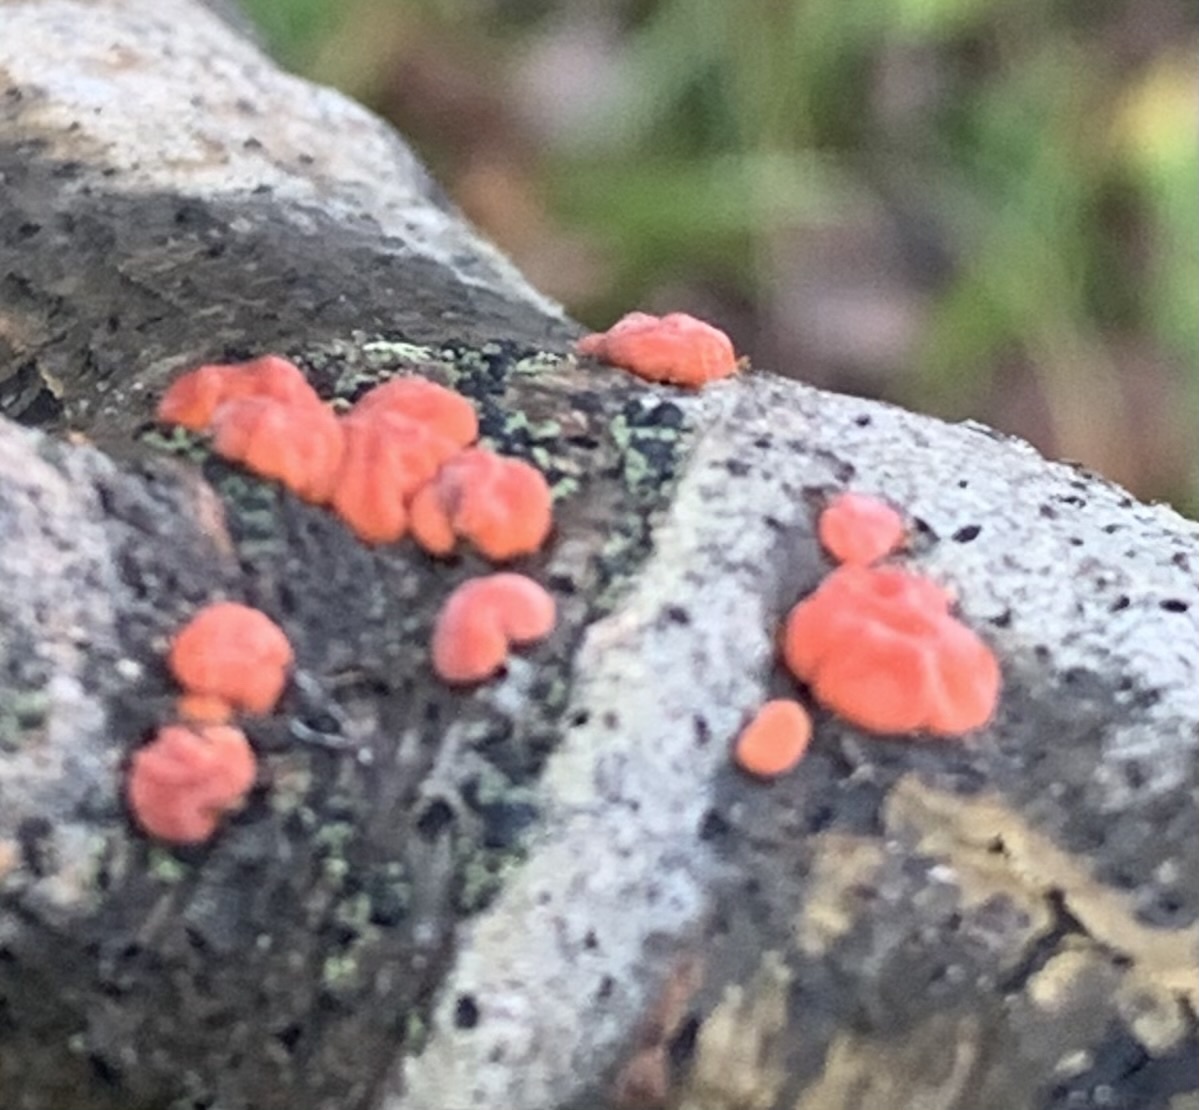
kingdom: Fungi
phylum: Basidiomycota
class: Agaricomycetes
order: Russulales
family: Peniophoraceae
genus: Peniophora
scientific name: Peniophora rufa
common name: Red tree brain fungus
